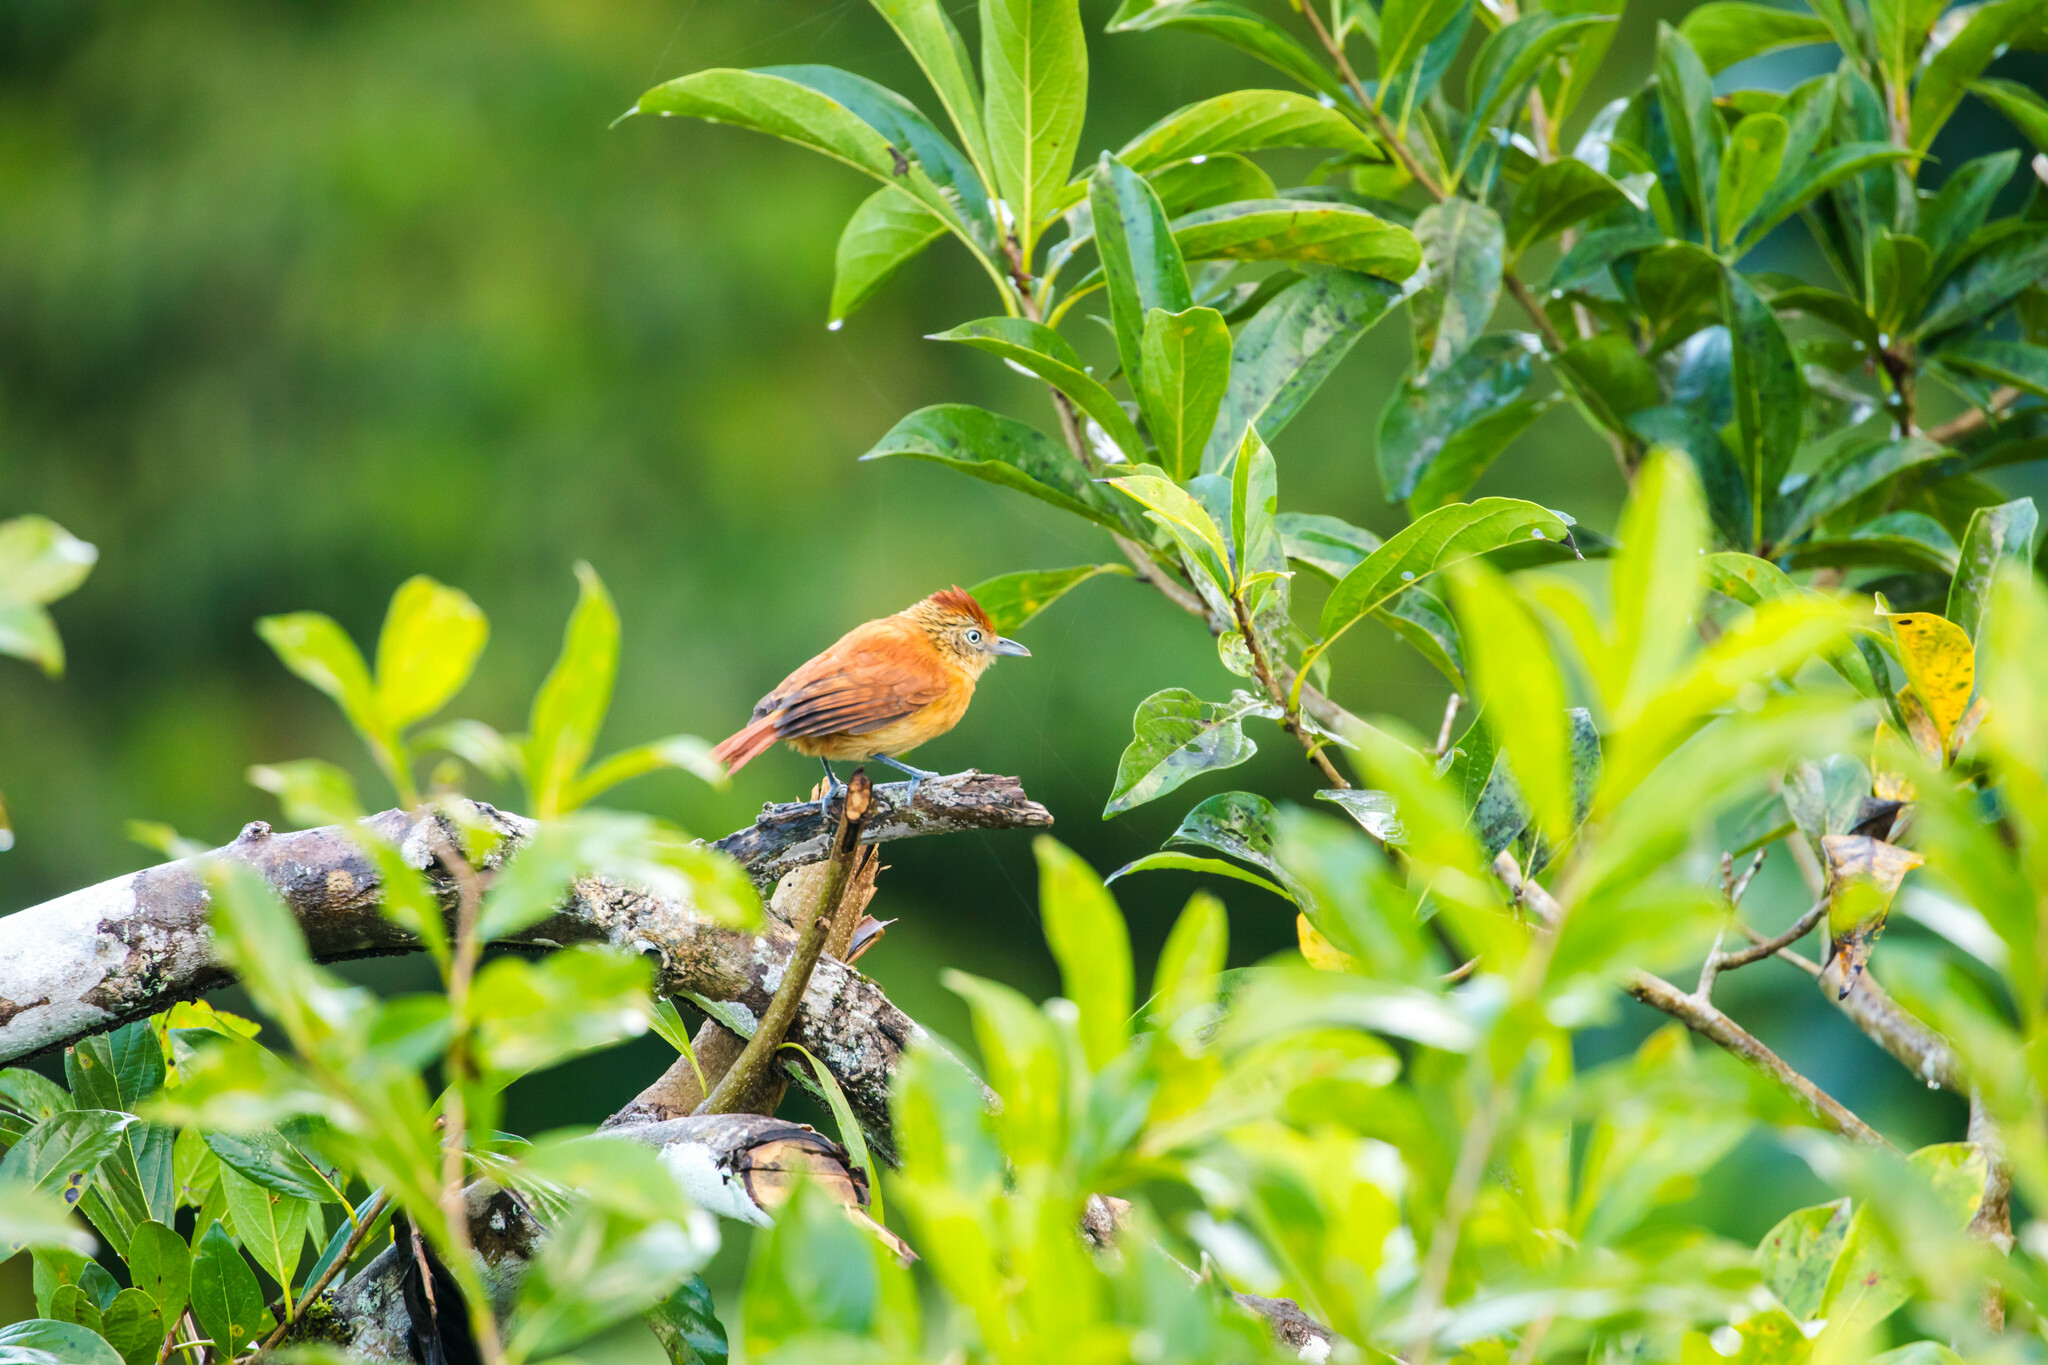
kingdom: Animalia
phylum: Chordata
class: Aves
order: Passeriformes
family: Thamnophilidae
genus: Thamnophilus
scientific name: Thamnophilus doliatus
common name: Barred antshrike
